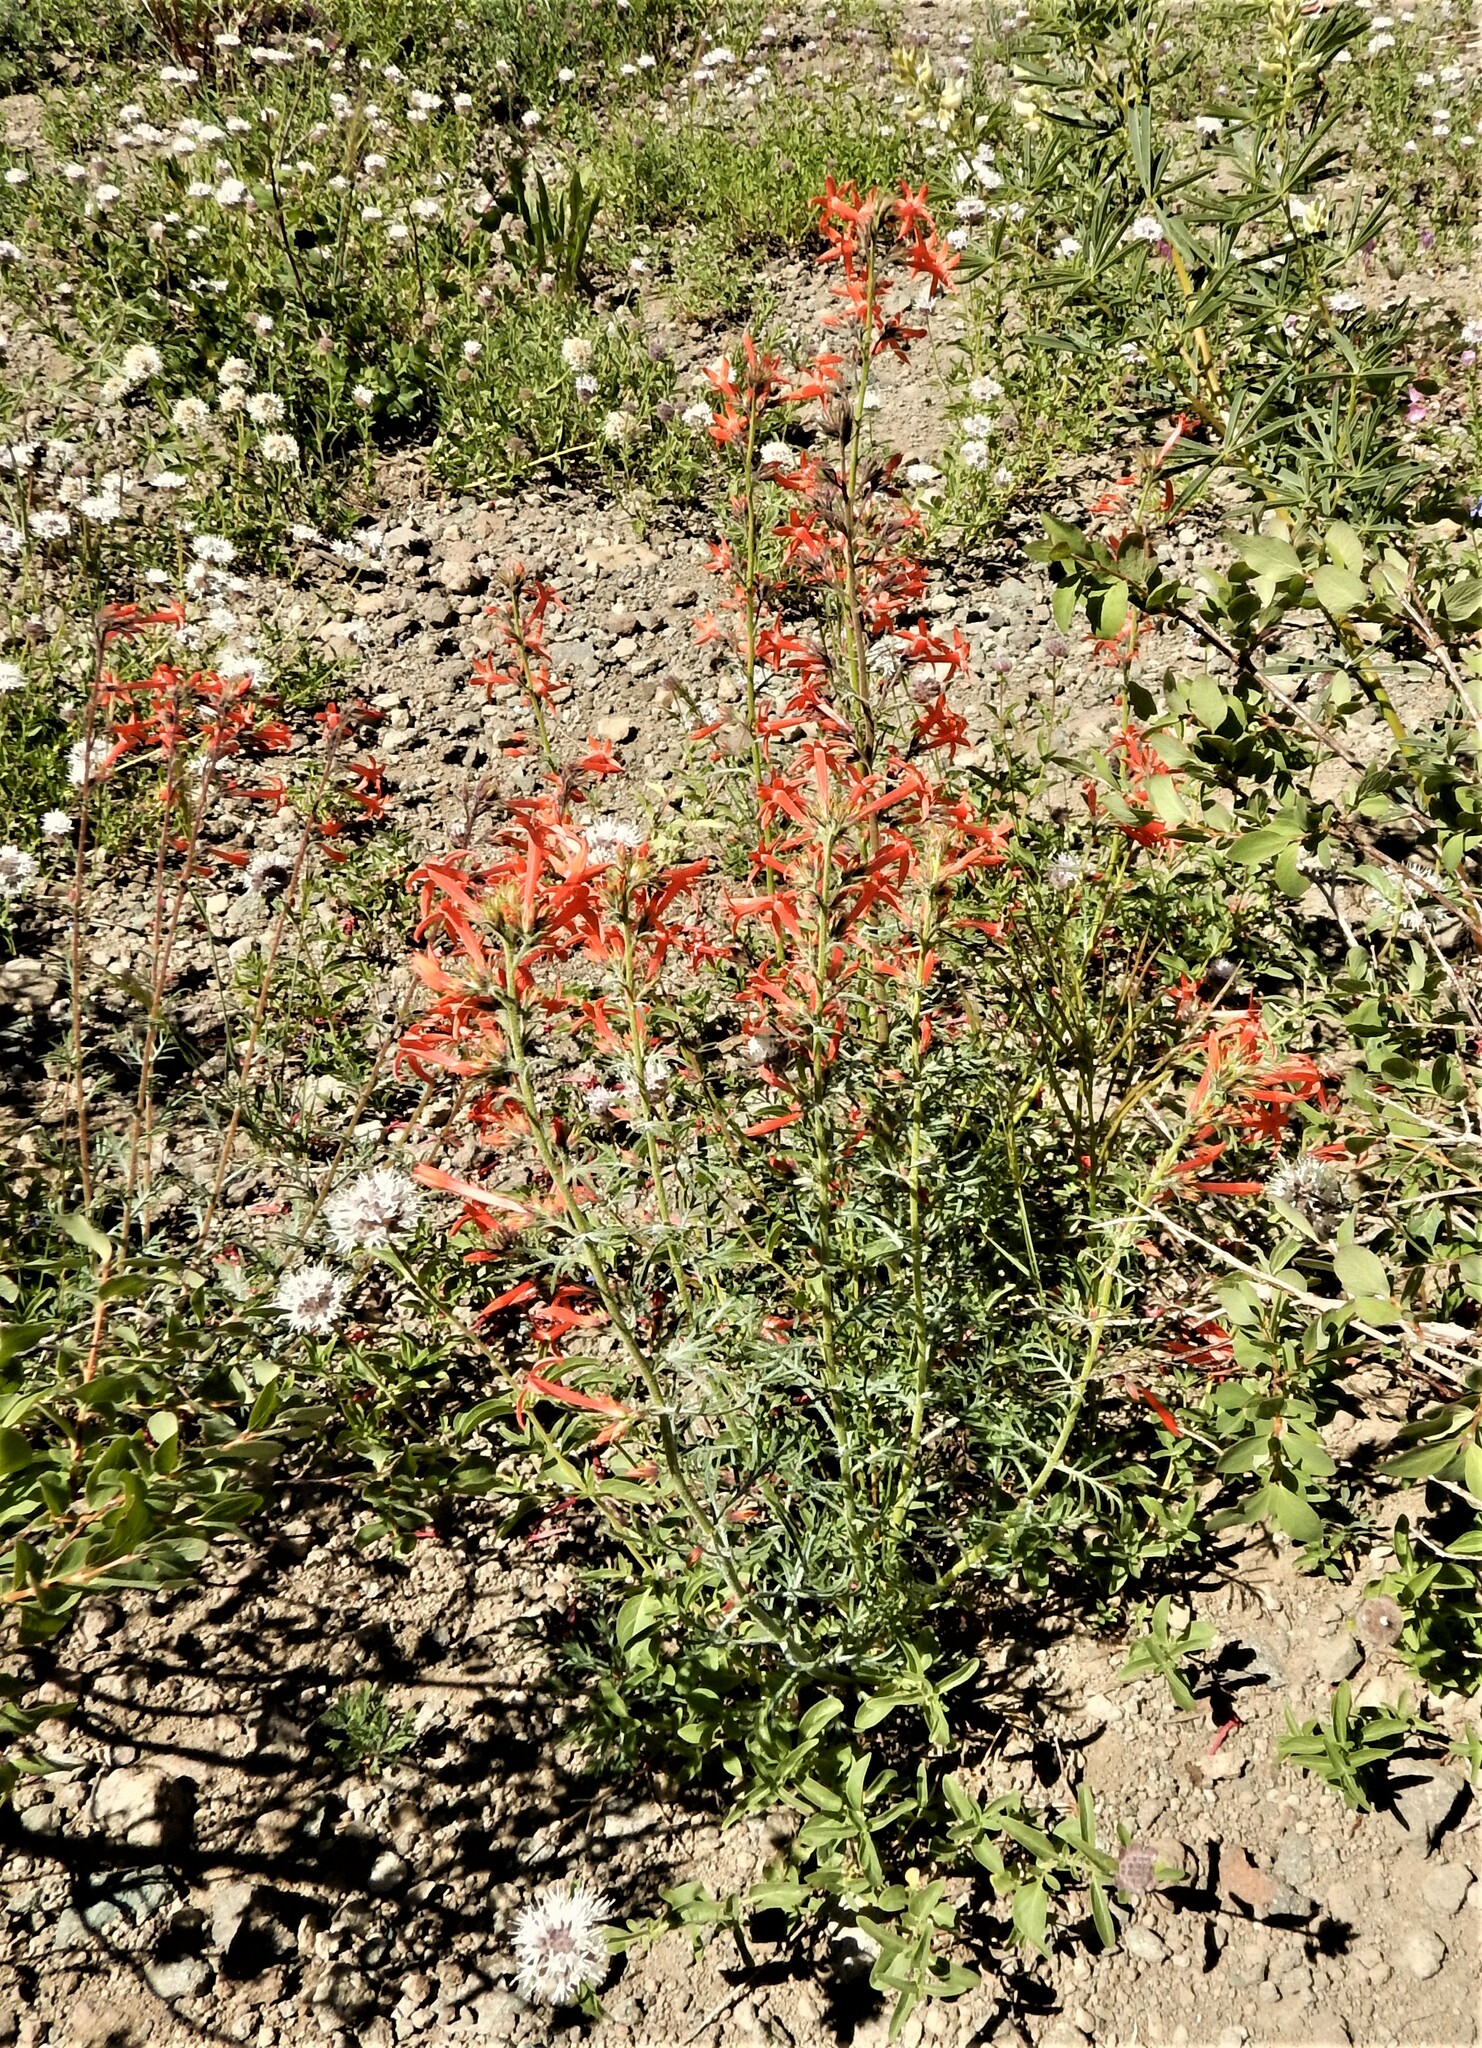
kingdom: Plantae
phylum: Tracheophyta
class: Magnoliopsida
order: Ericales
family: Polemoniaceae
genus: Ipomopsis
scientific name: Ipomopsis aggregata
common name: Scarlet gilia
